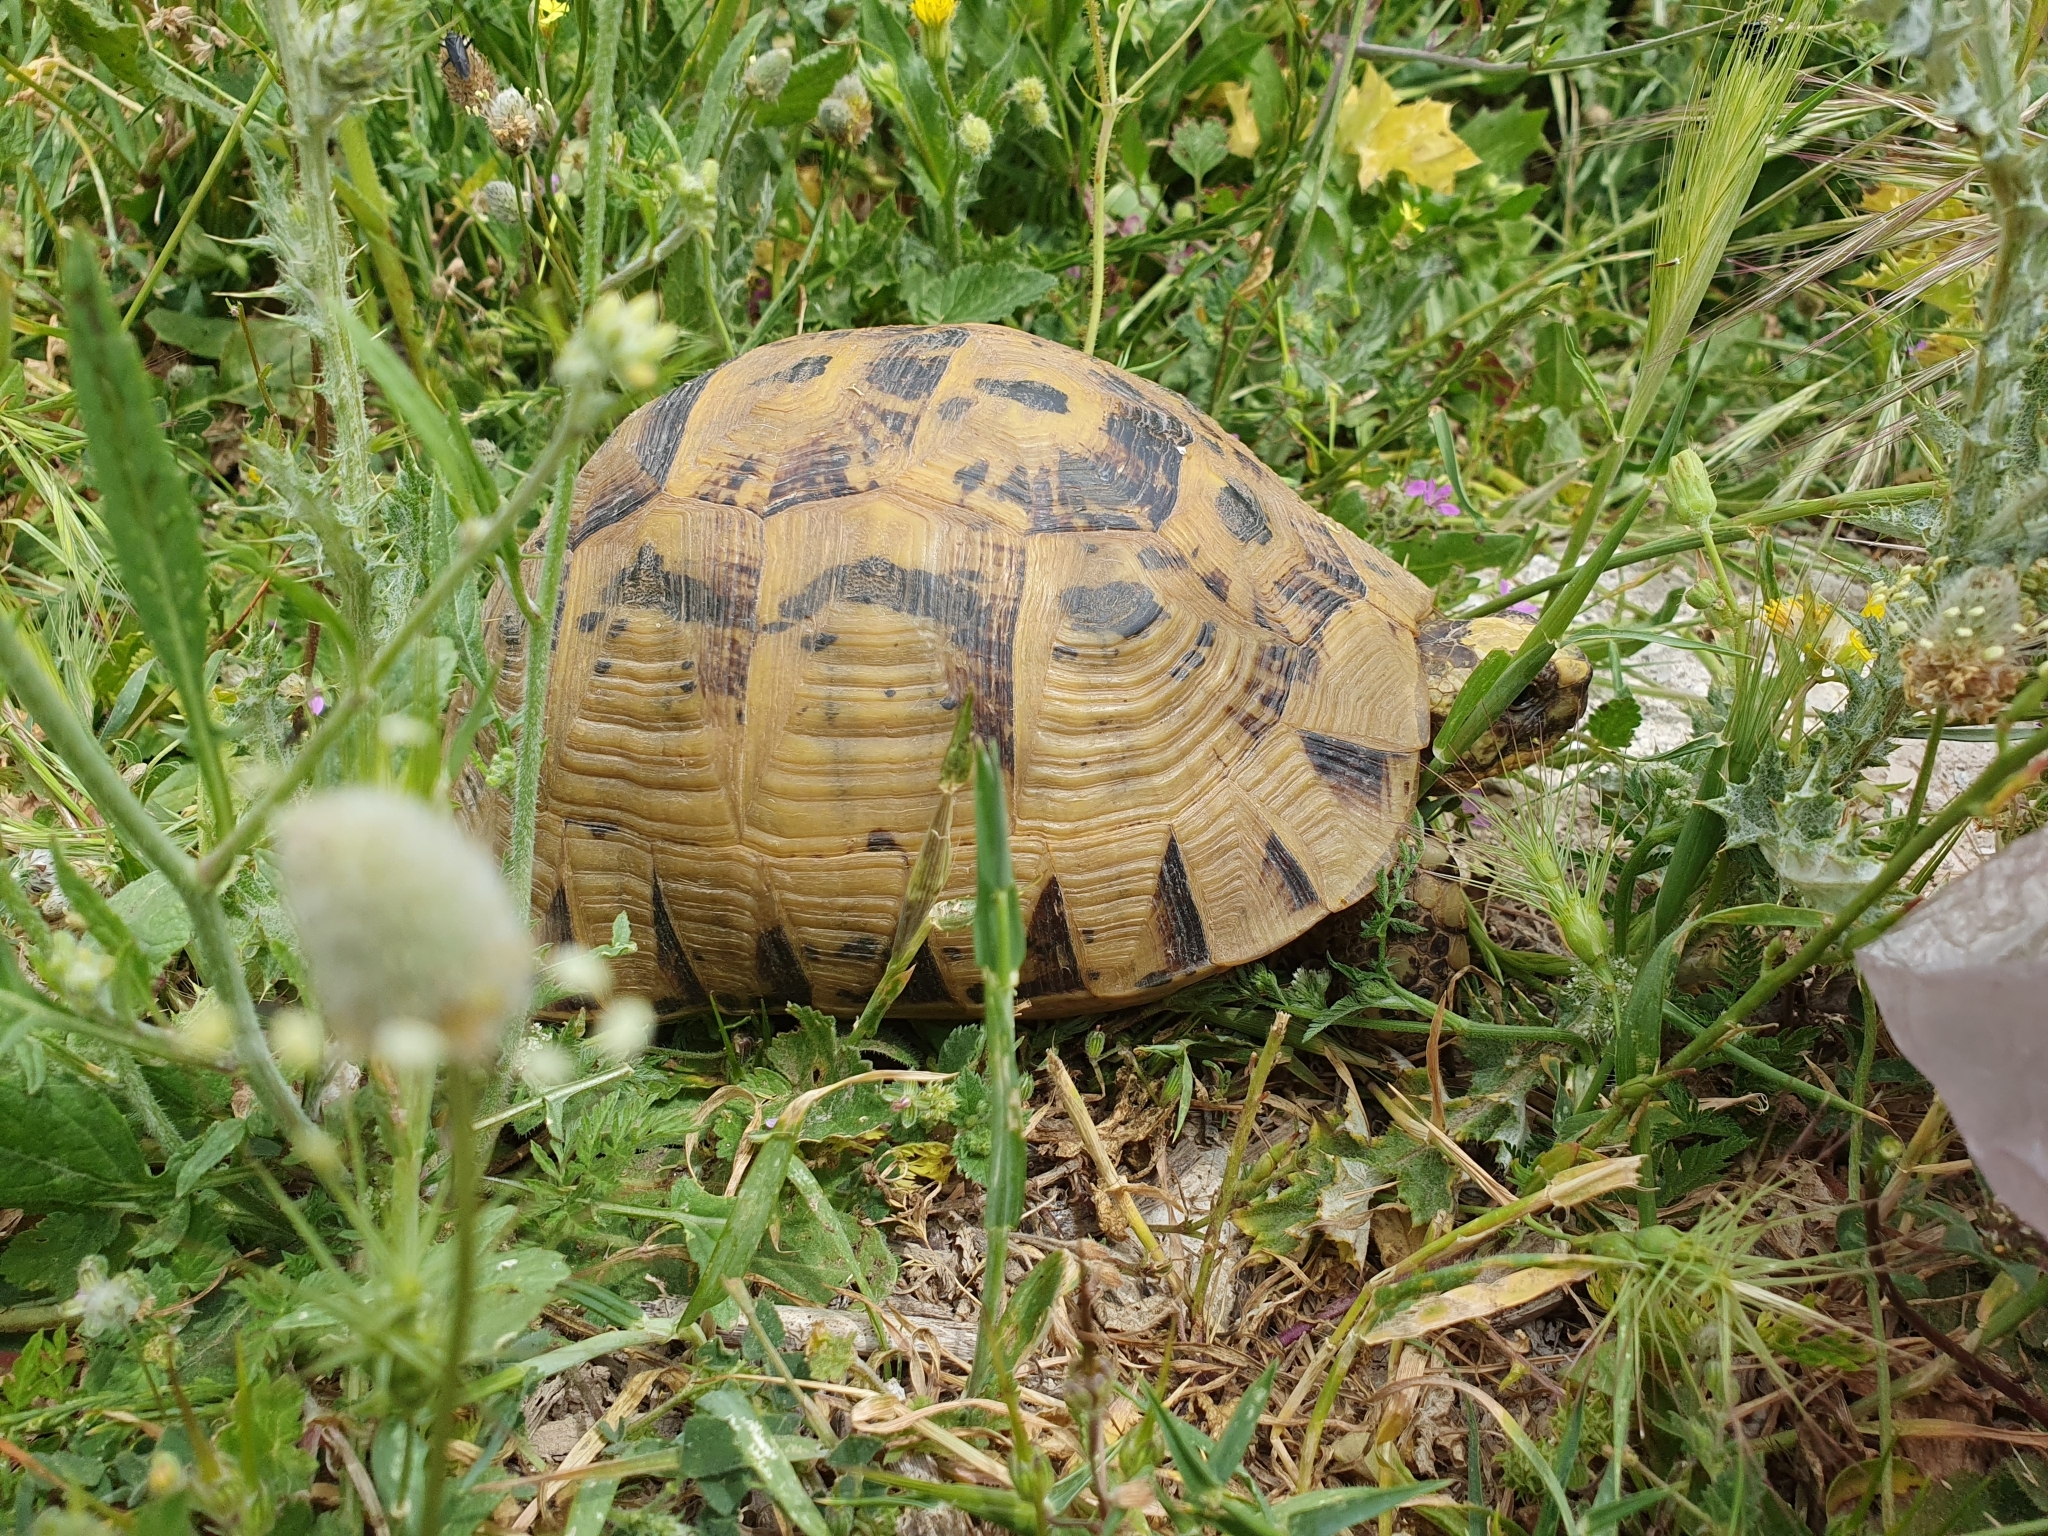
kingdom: Animalia
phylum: Chordata
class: Testudines
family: Testudinidae
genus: Testudo
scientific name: Testudo graeca
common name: Common tortoise
